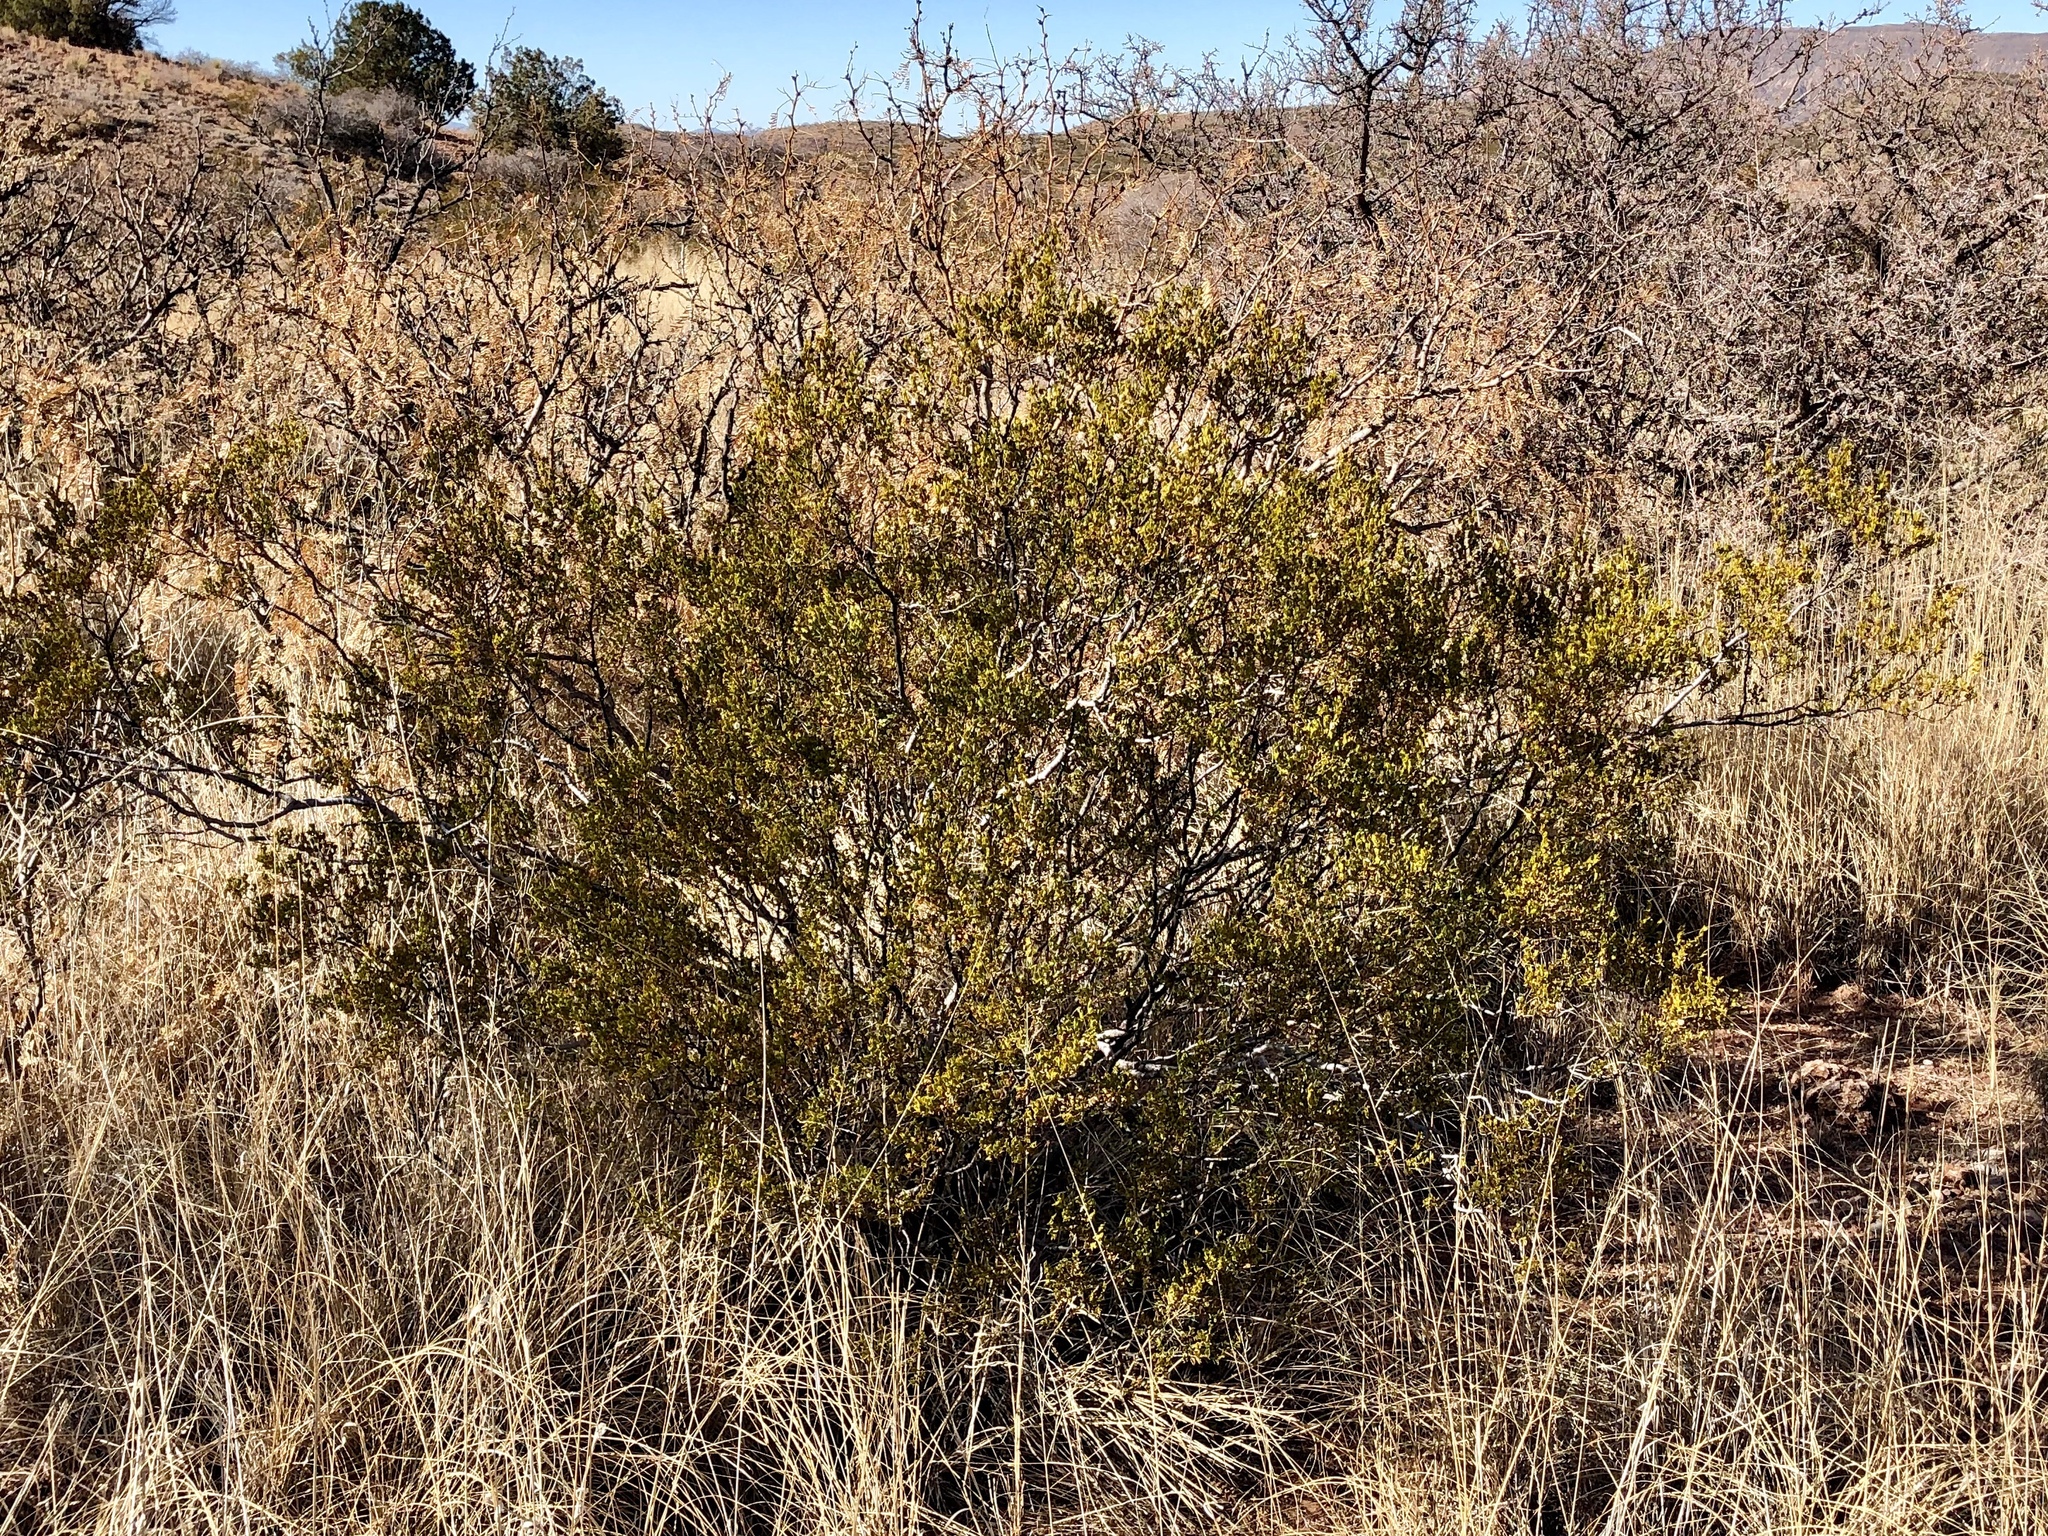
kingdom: Plantae
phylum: Tracheophyta
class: Magnoliopsida
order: Zygophyllales
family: Zygophyllaceae
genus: Larrea
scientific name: Larrea tridentata
